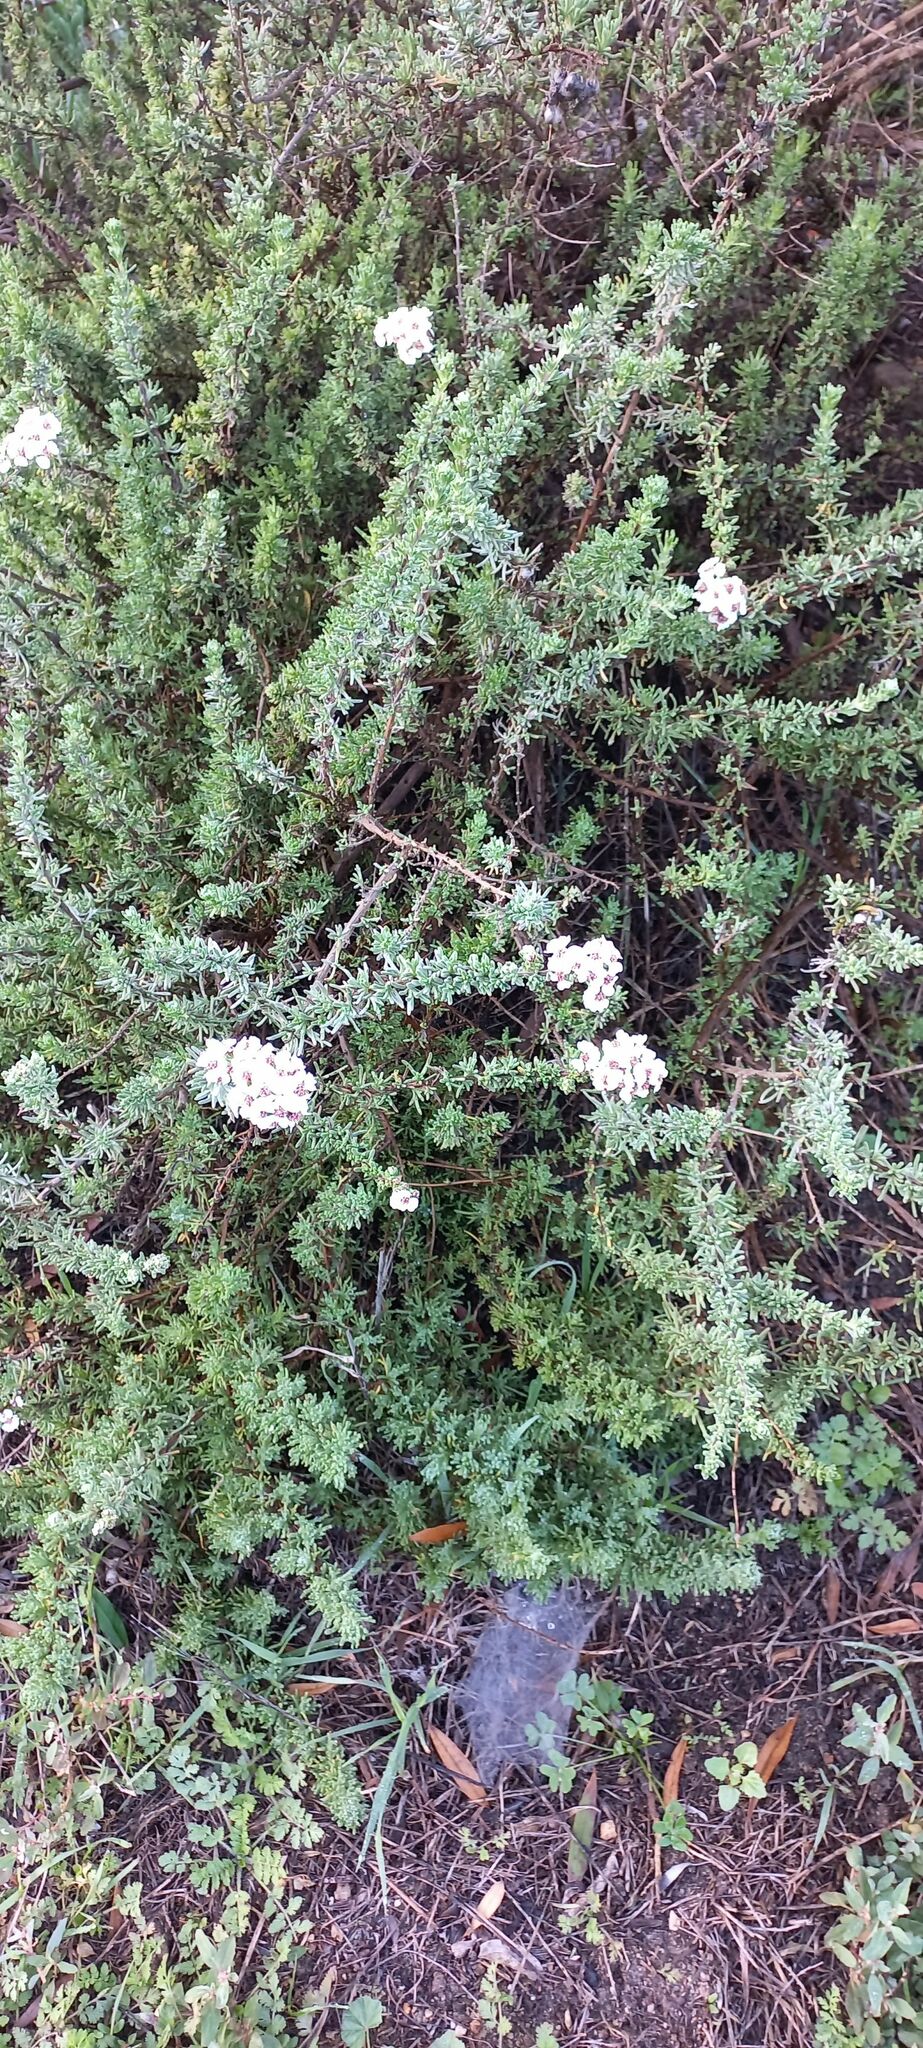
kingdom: Plantae
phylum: Tracheophyta
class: Magnoliopsida
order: Asterales
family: Asteraceae
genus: Eriocephalus
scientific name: Eriocephalus africanus
